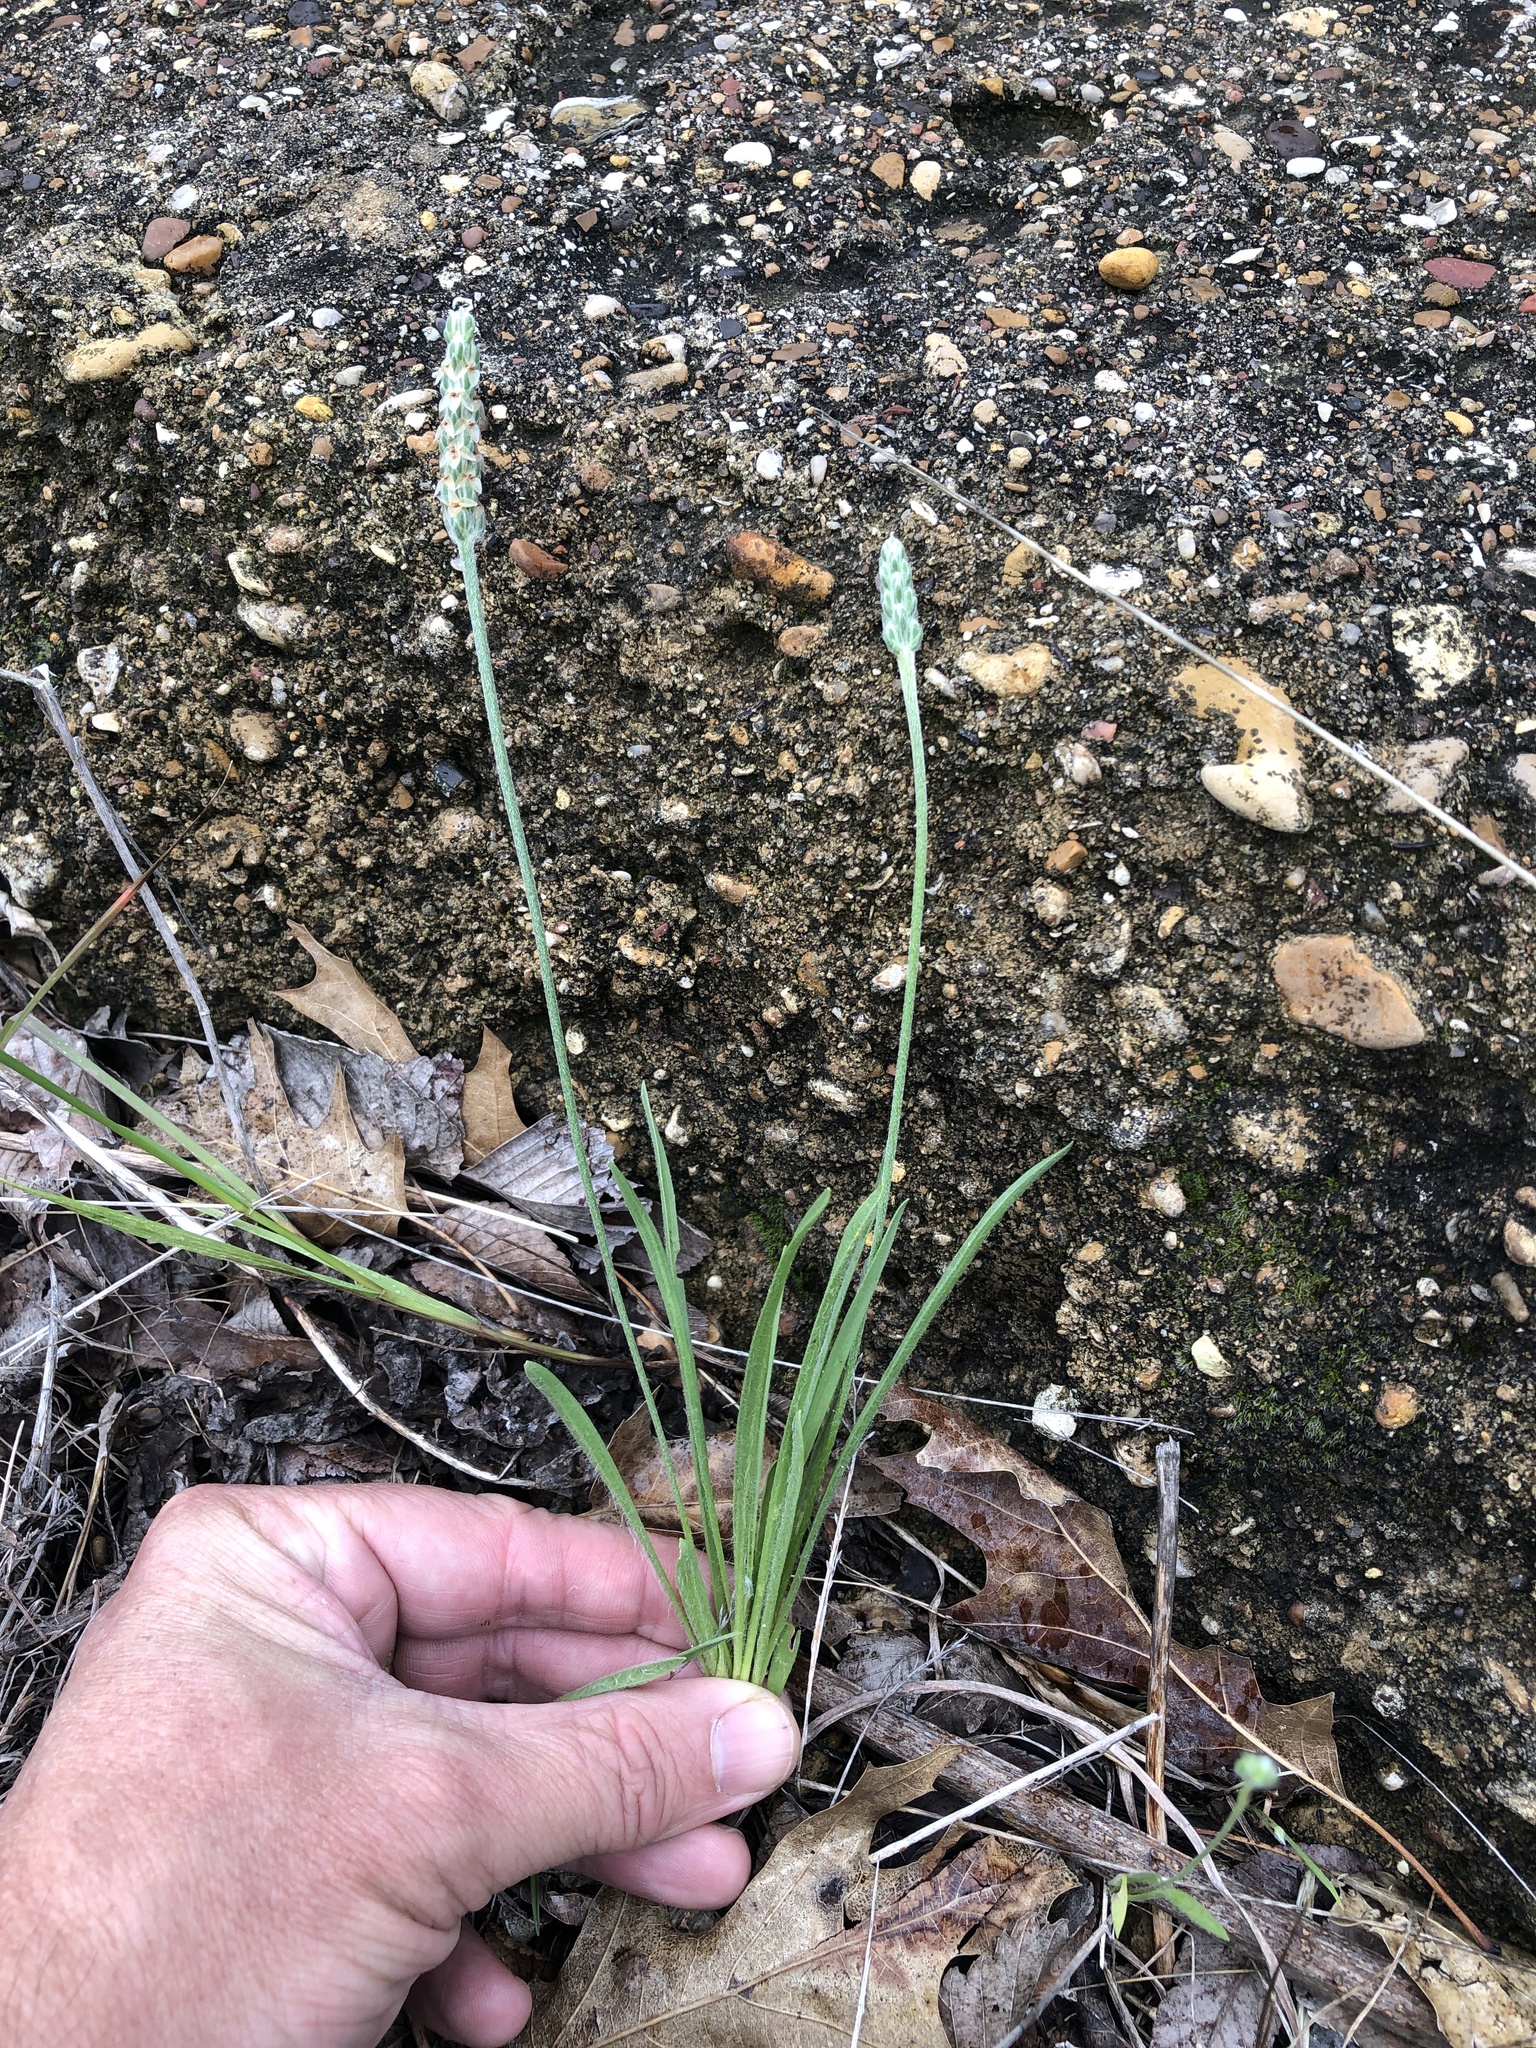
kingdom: Plantae
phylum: Tracheophyta
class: Magnoliopsida
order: Lamiales
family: Plantaginaceae
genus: Plantago
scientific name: Plantago wrightiana
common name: Wright's plantain
